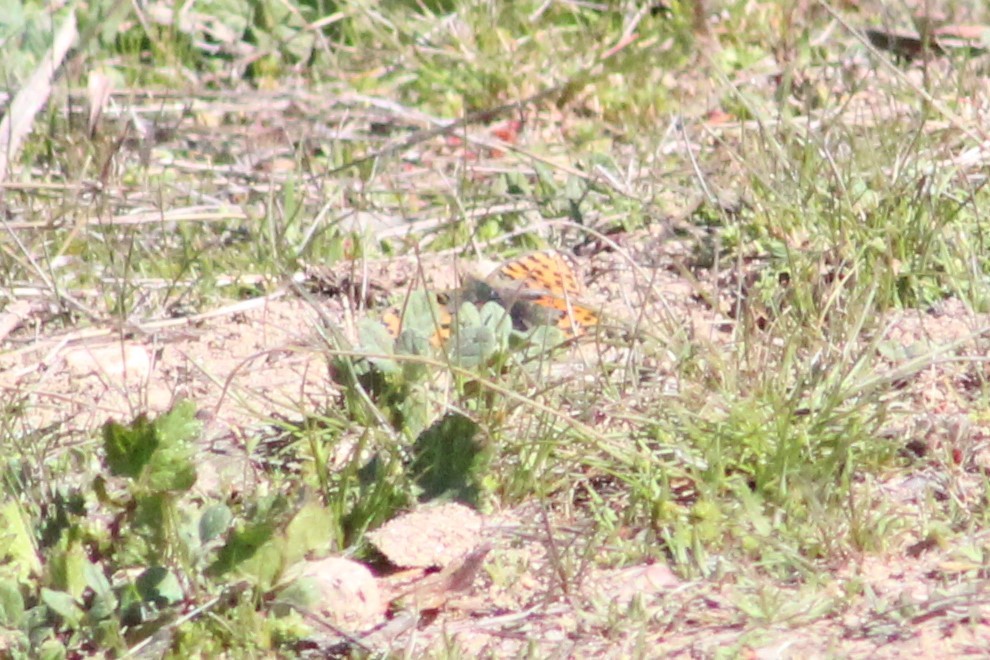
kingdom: Animalia
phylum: Arthropoda
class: Insecta
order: Lepidoptera
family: Nymphalidae
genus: Issoria
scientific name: Issoria lathonia
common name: Queen of spain fritillary
